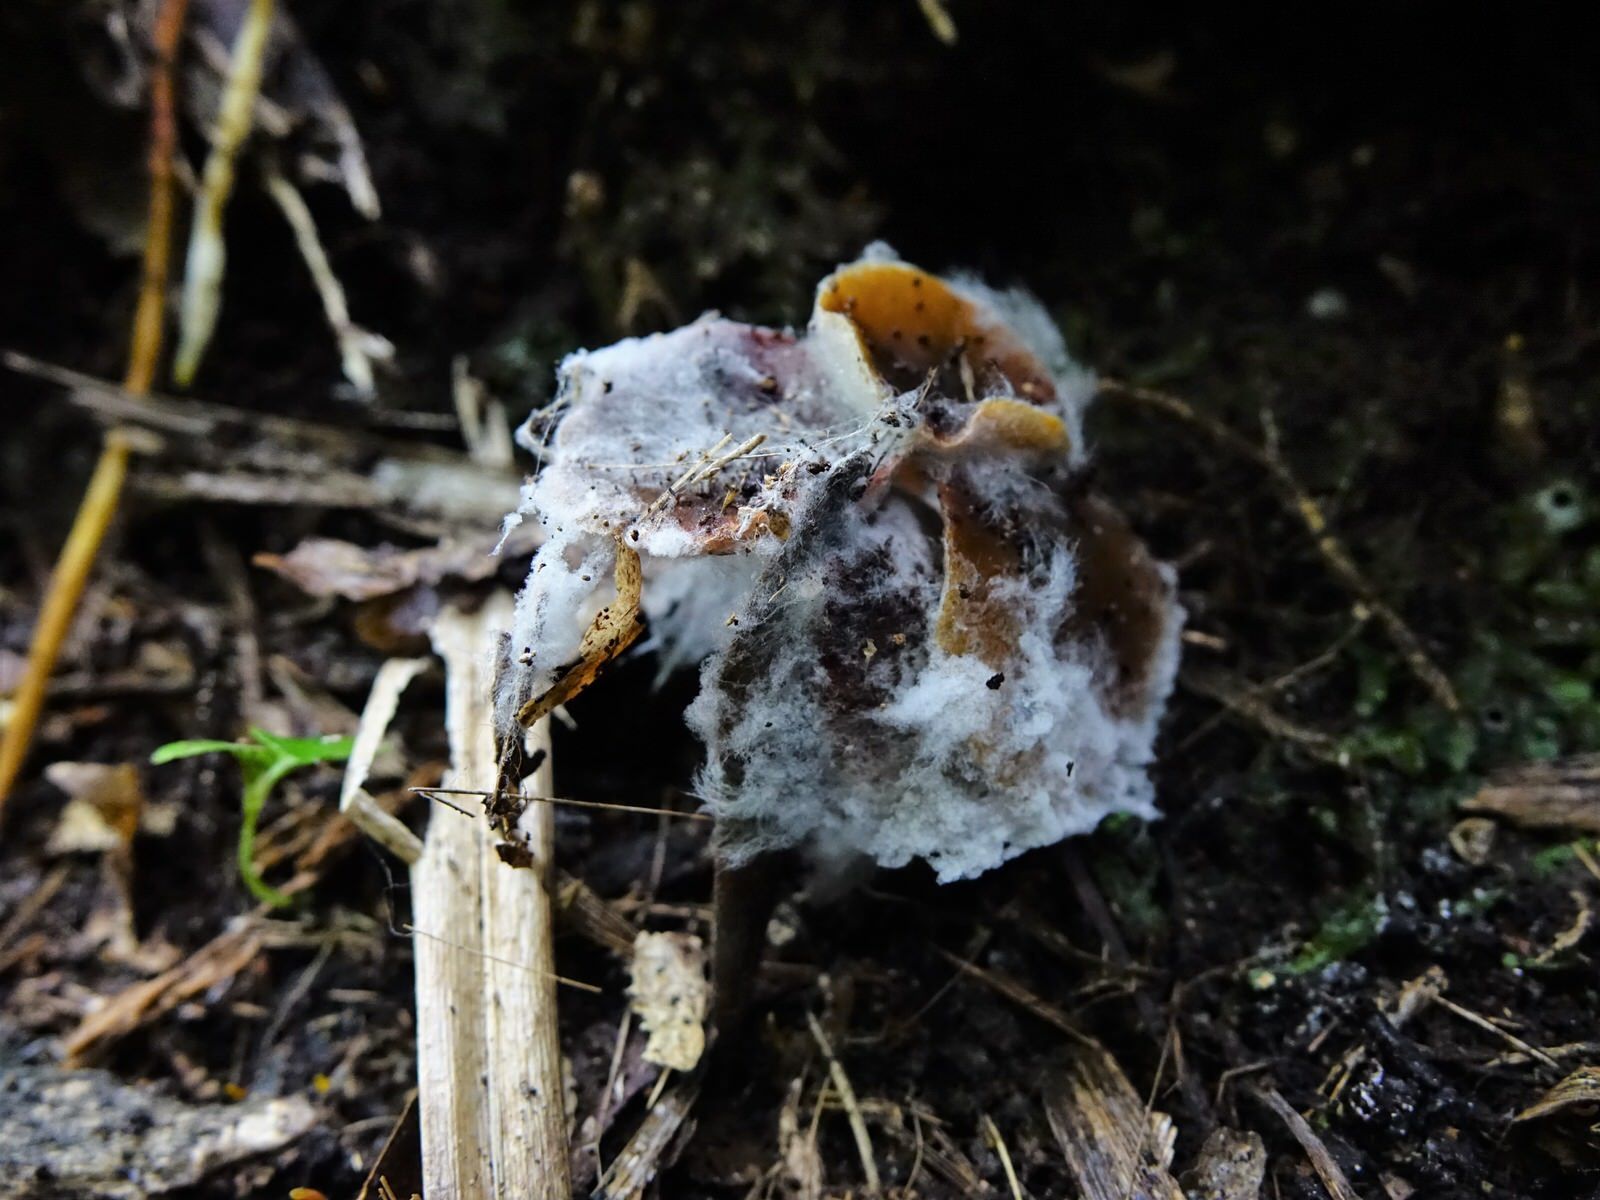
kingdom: Fungi
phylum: Basidiomycota
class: Agaricomycetes
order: Agaricales
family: Callistosporiaceae
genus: Callistosporium
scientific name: Callistosporium
